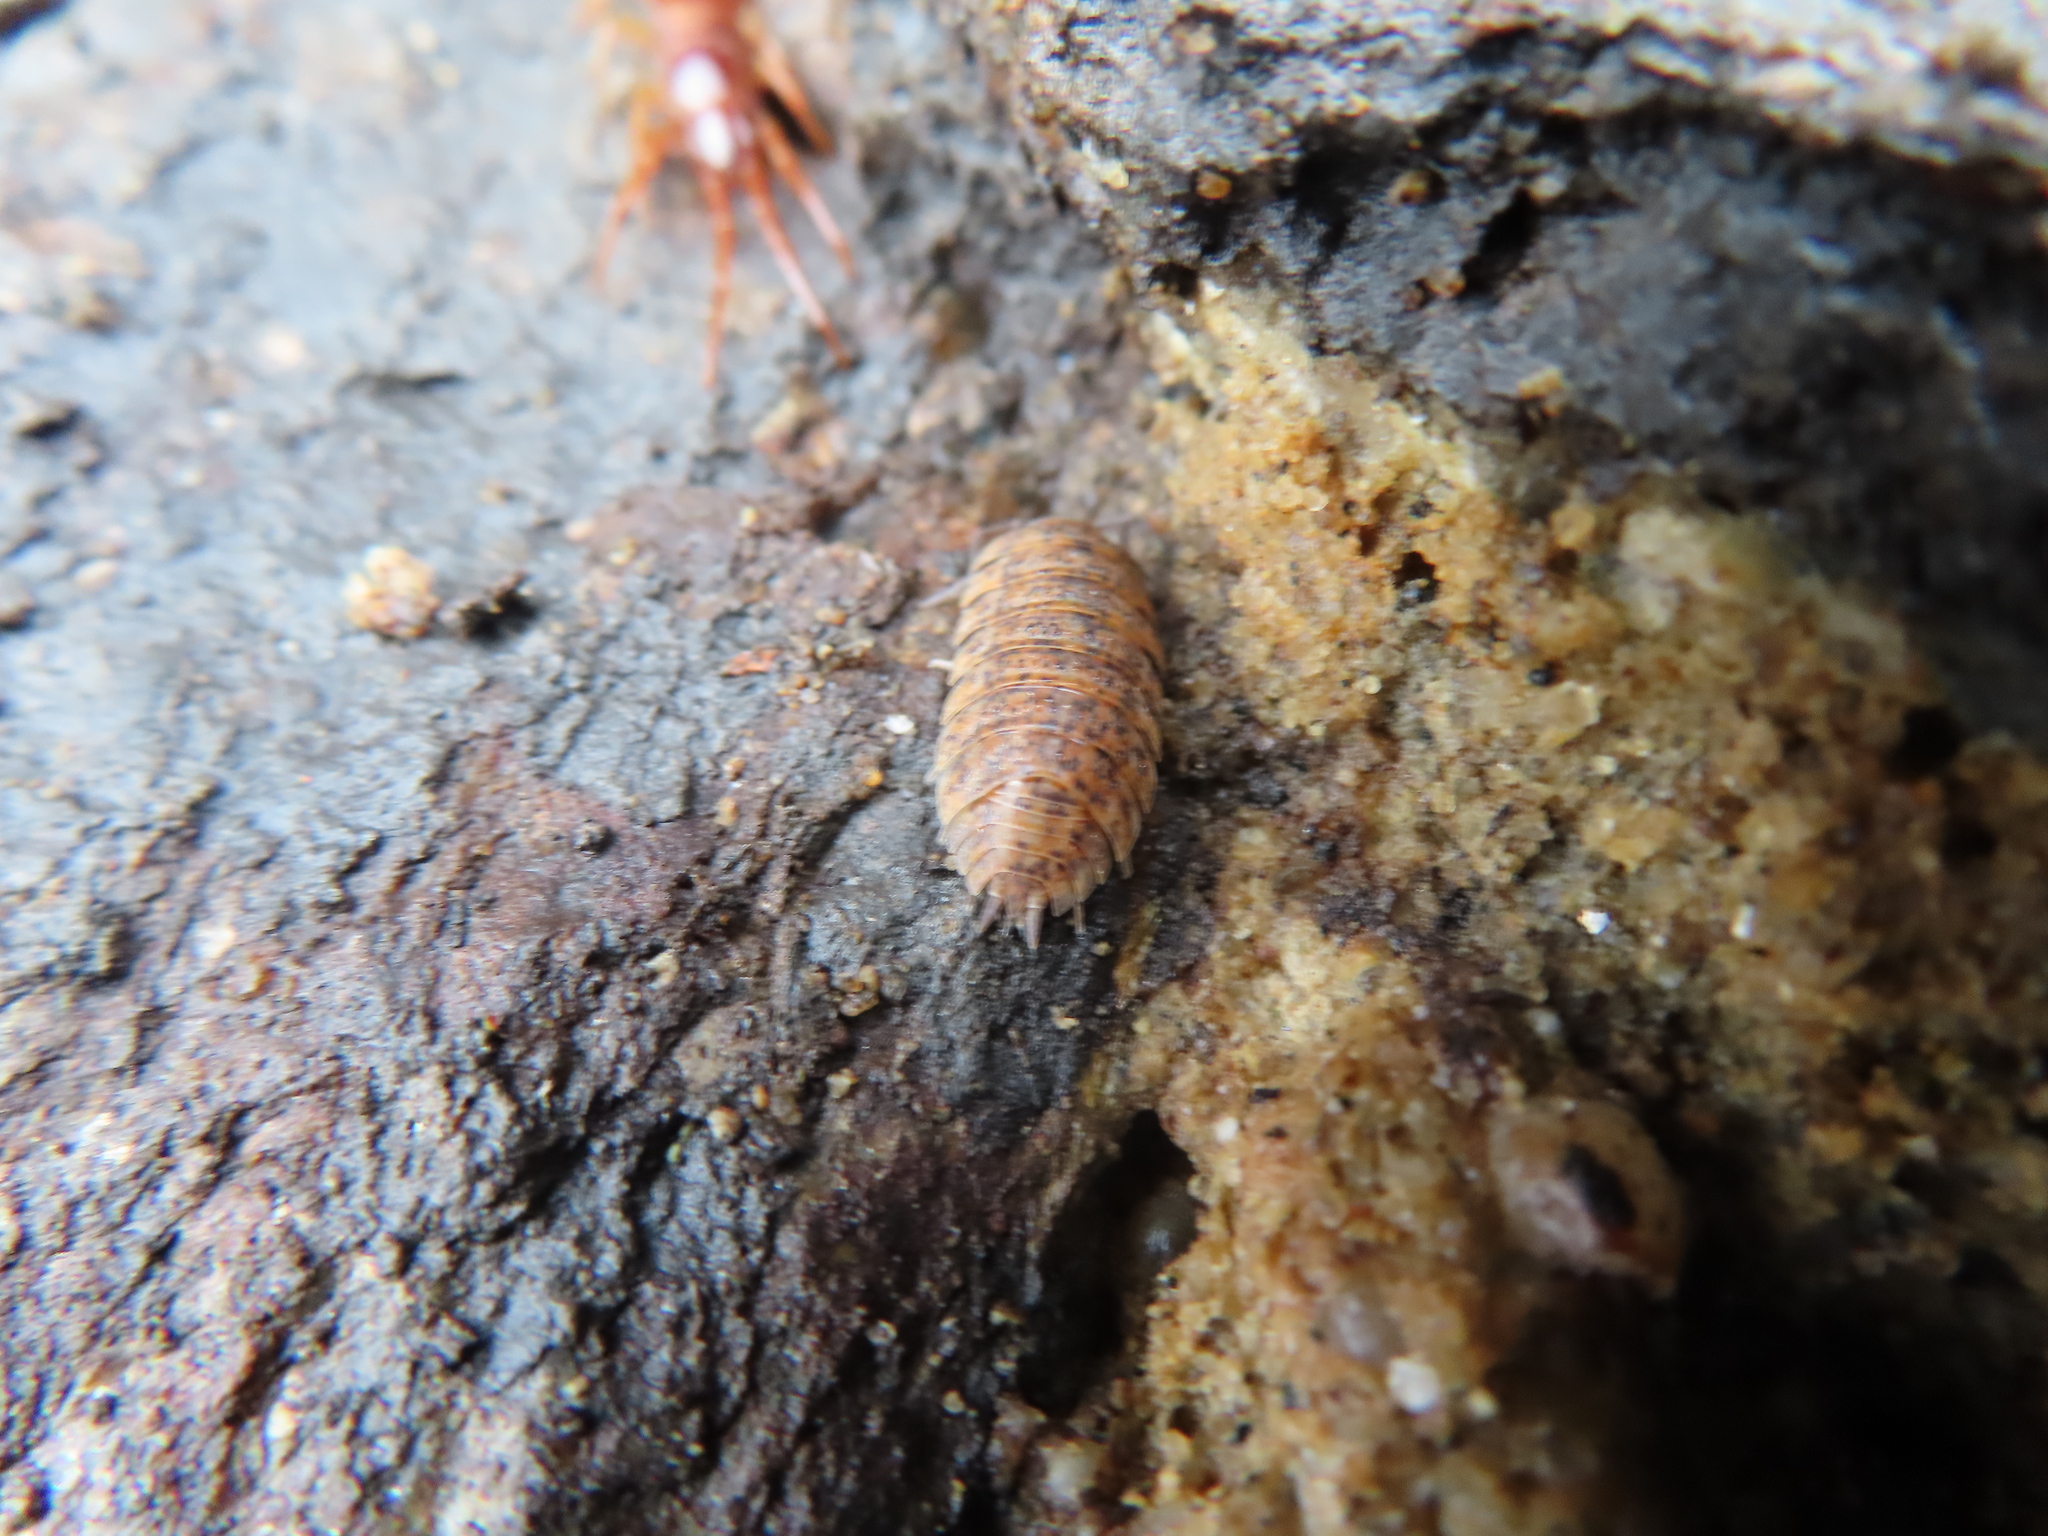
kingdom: Animalia
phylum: Arthropoda
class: Malacostraca
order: Isopoda
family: Trachelipodidae
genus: Trachelipus
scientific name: Trachelipus rathkii
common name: Isopod
